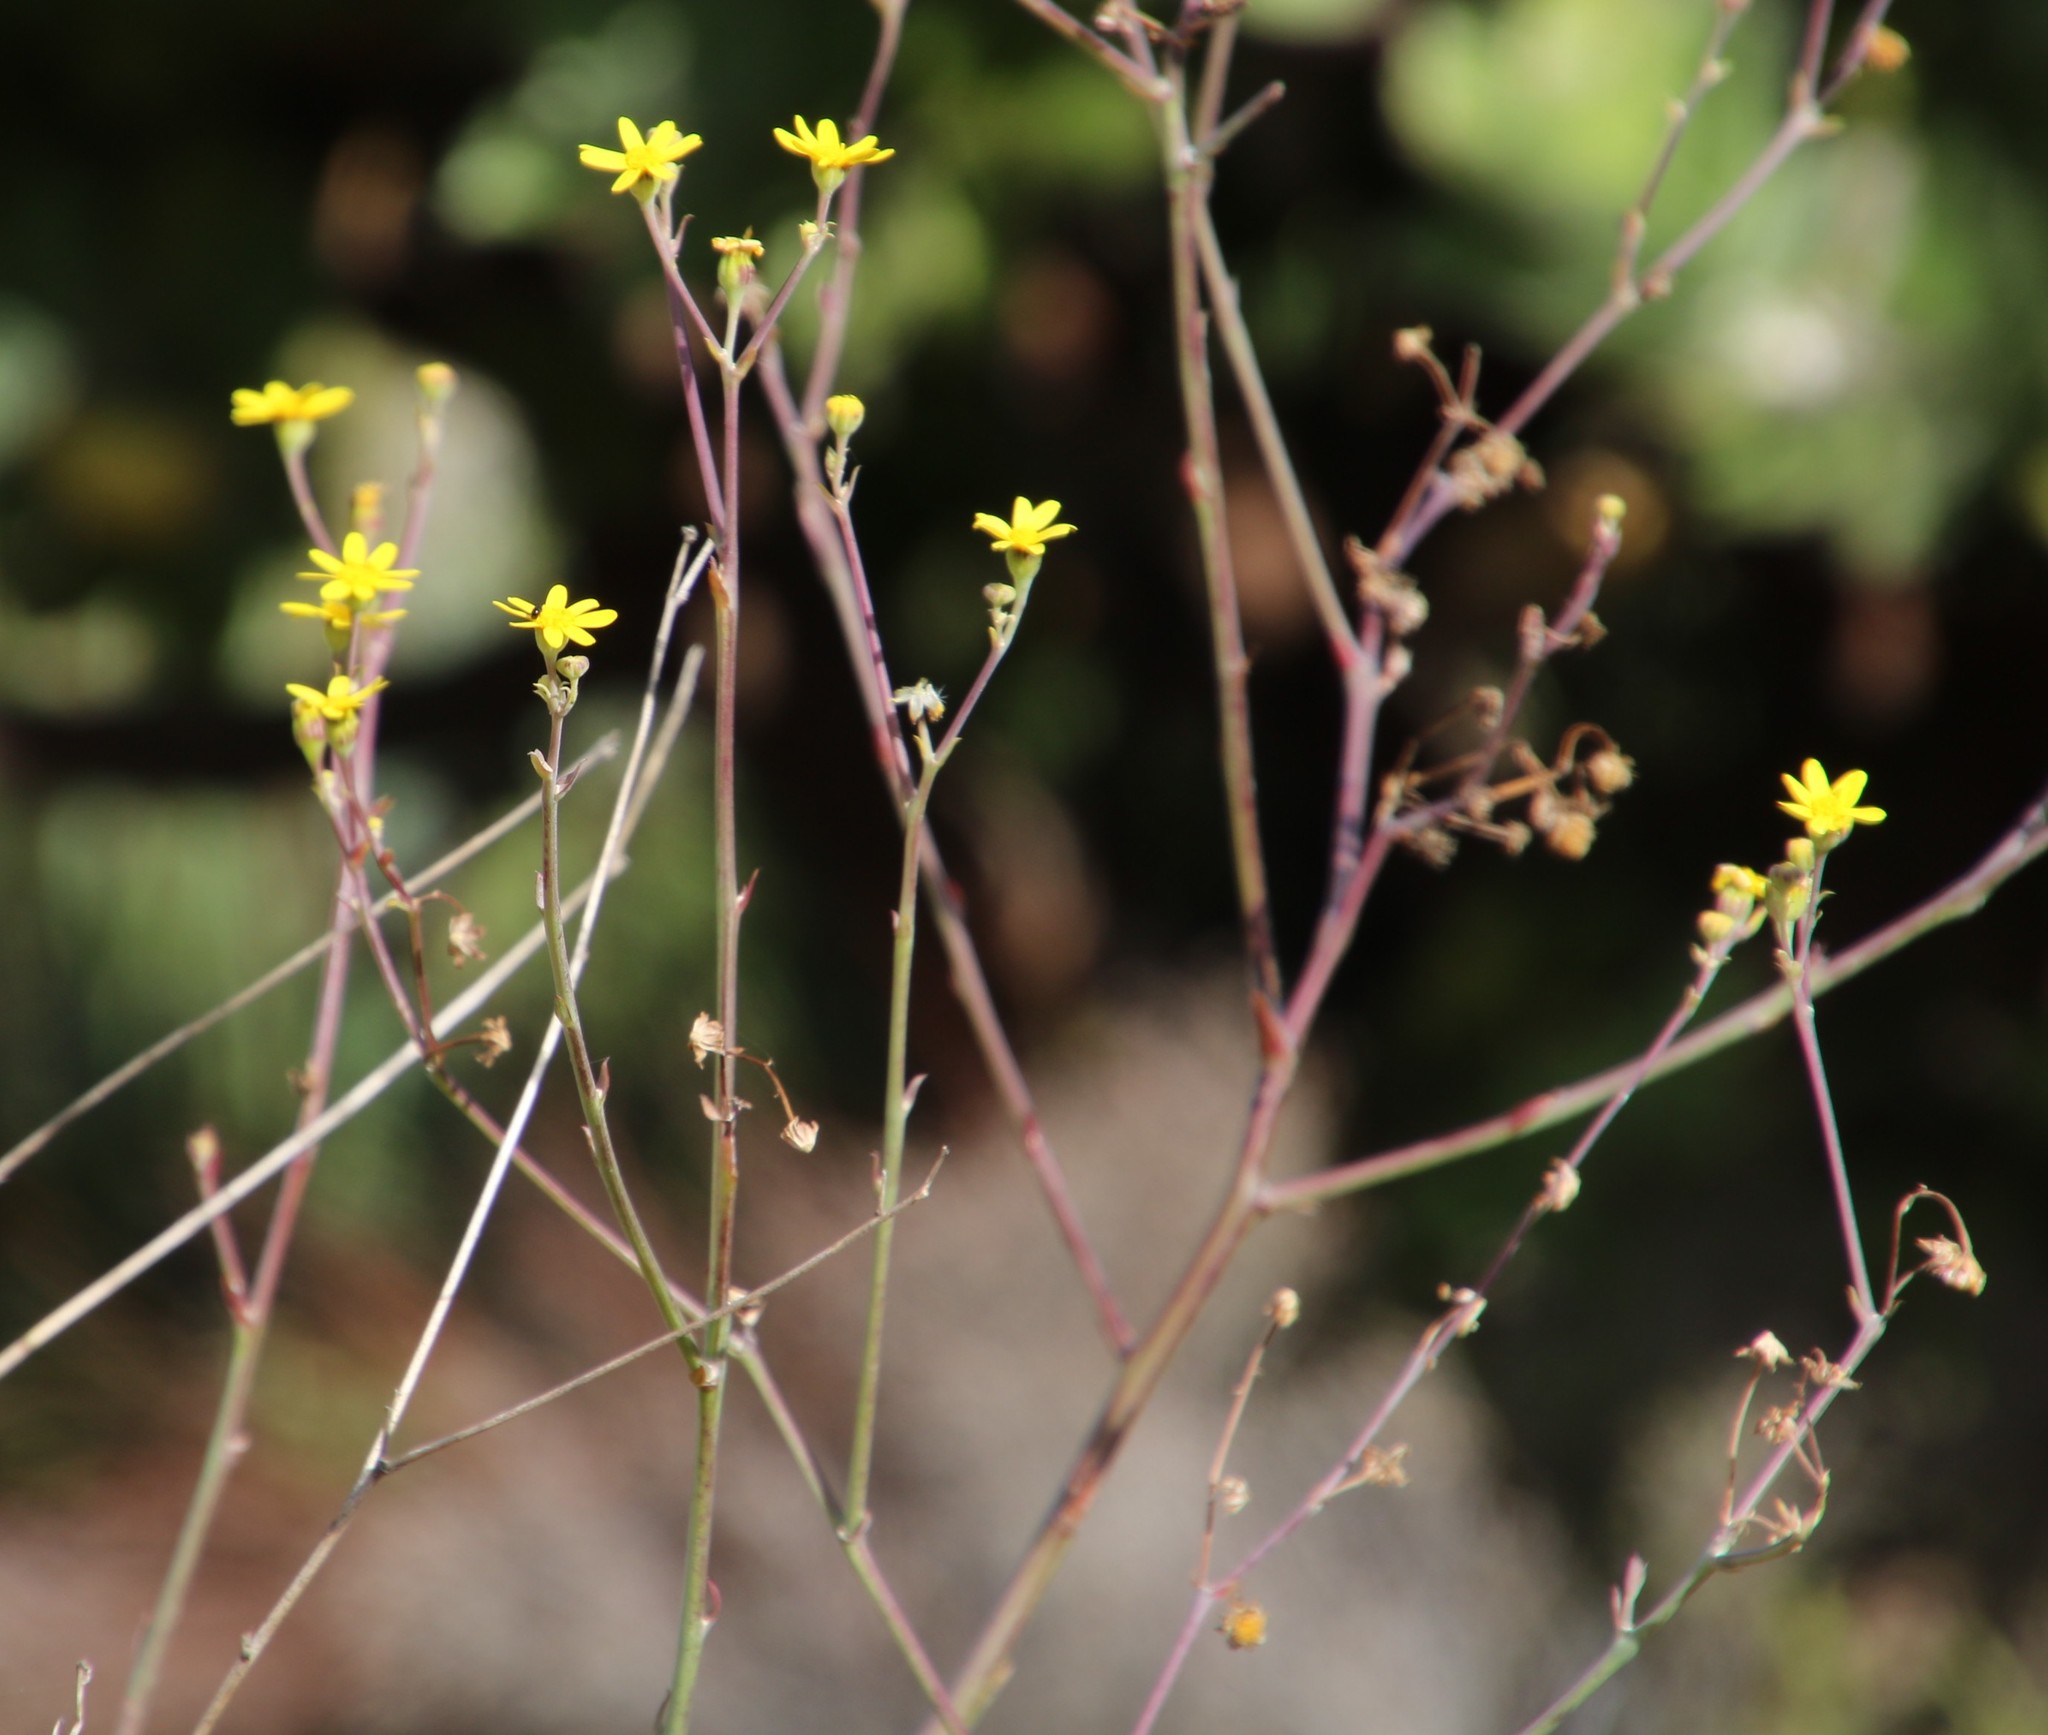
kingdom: Plantae
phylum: Tracheophyta
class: Magnoliopsida
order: Asterales
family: Asteraceae
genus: Othonna
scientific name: Othonna quinquedentata
